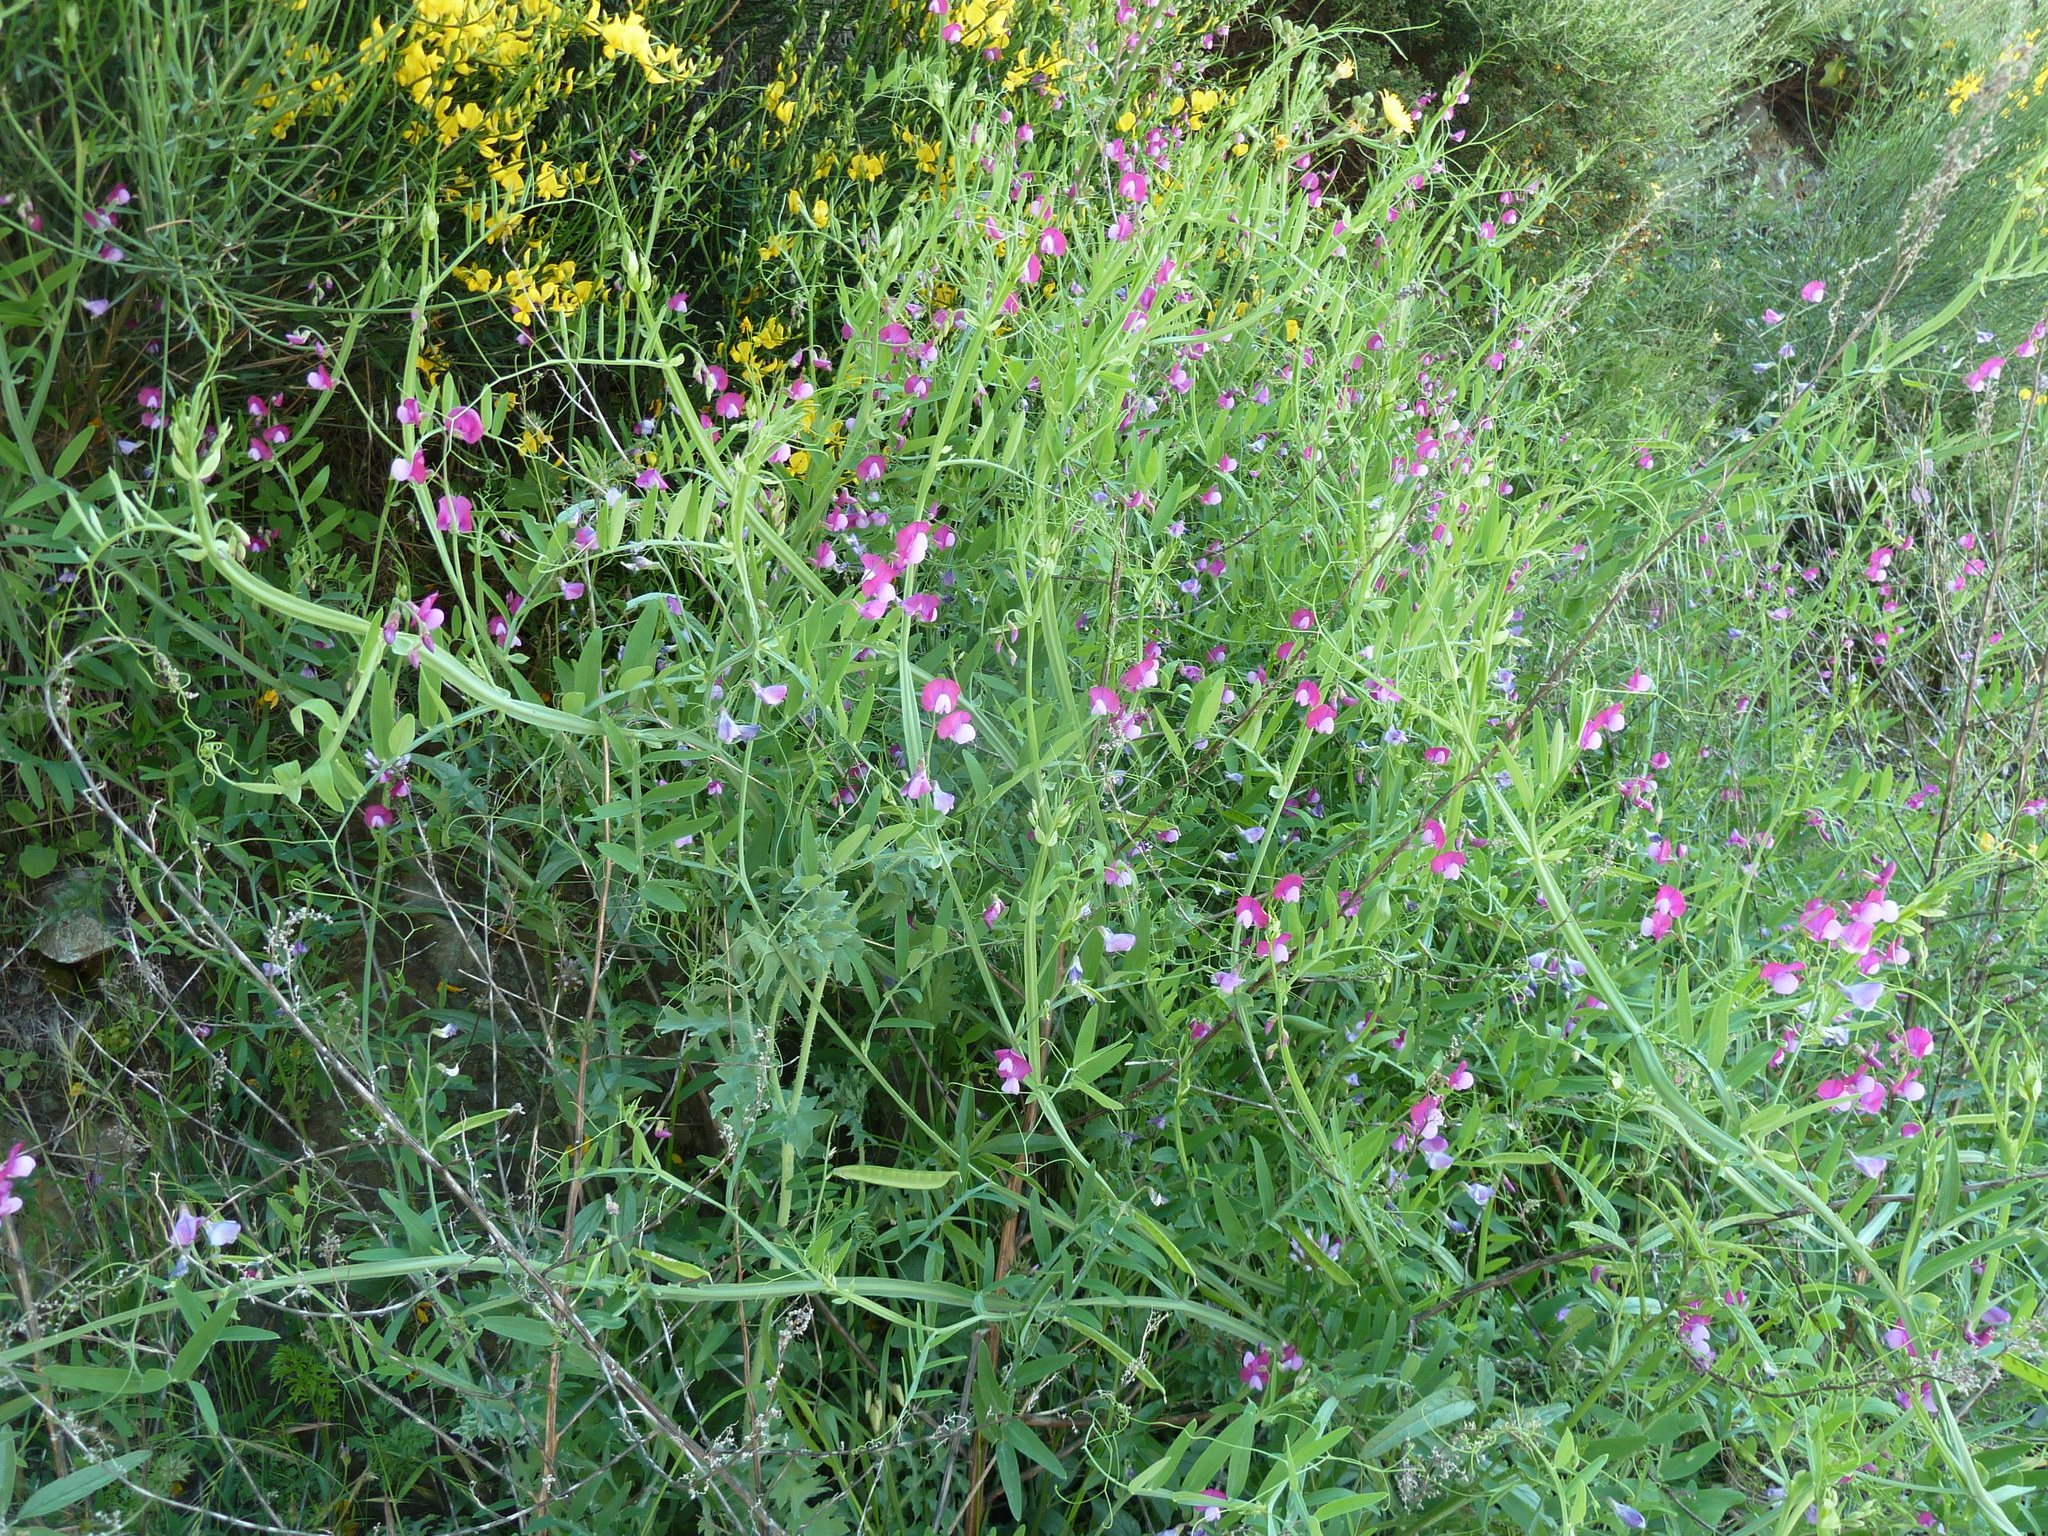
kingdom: Plantae
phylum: Tracheophyta
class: Magnoliopsida
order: Fabales
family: Fabaceae
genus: Lathyrus
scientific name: Lathyrus clymenum
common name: Spanish vetchling
